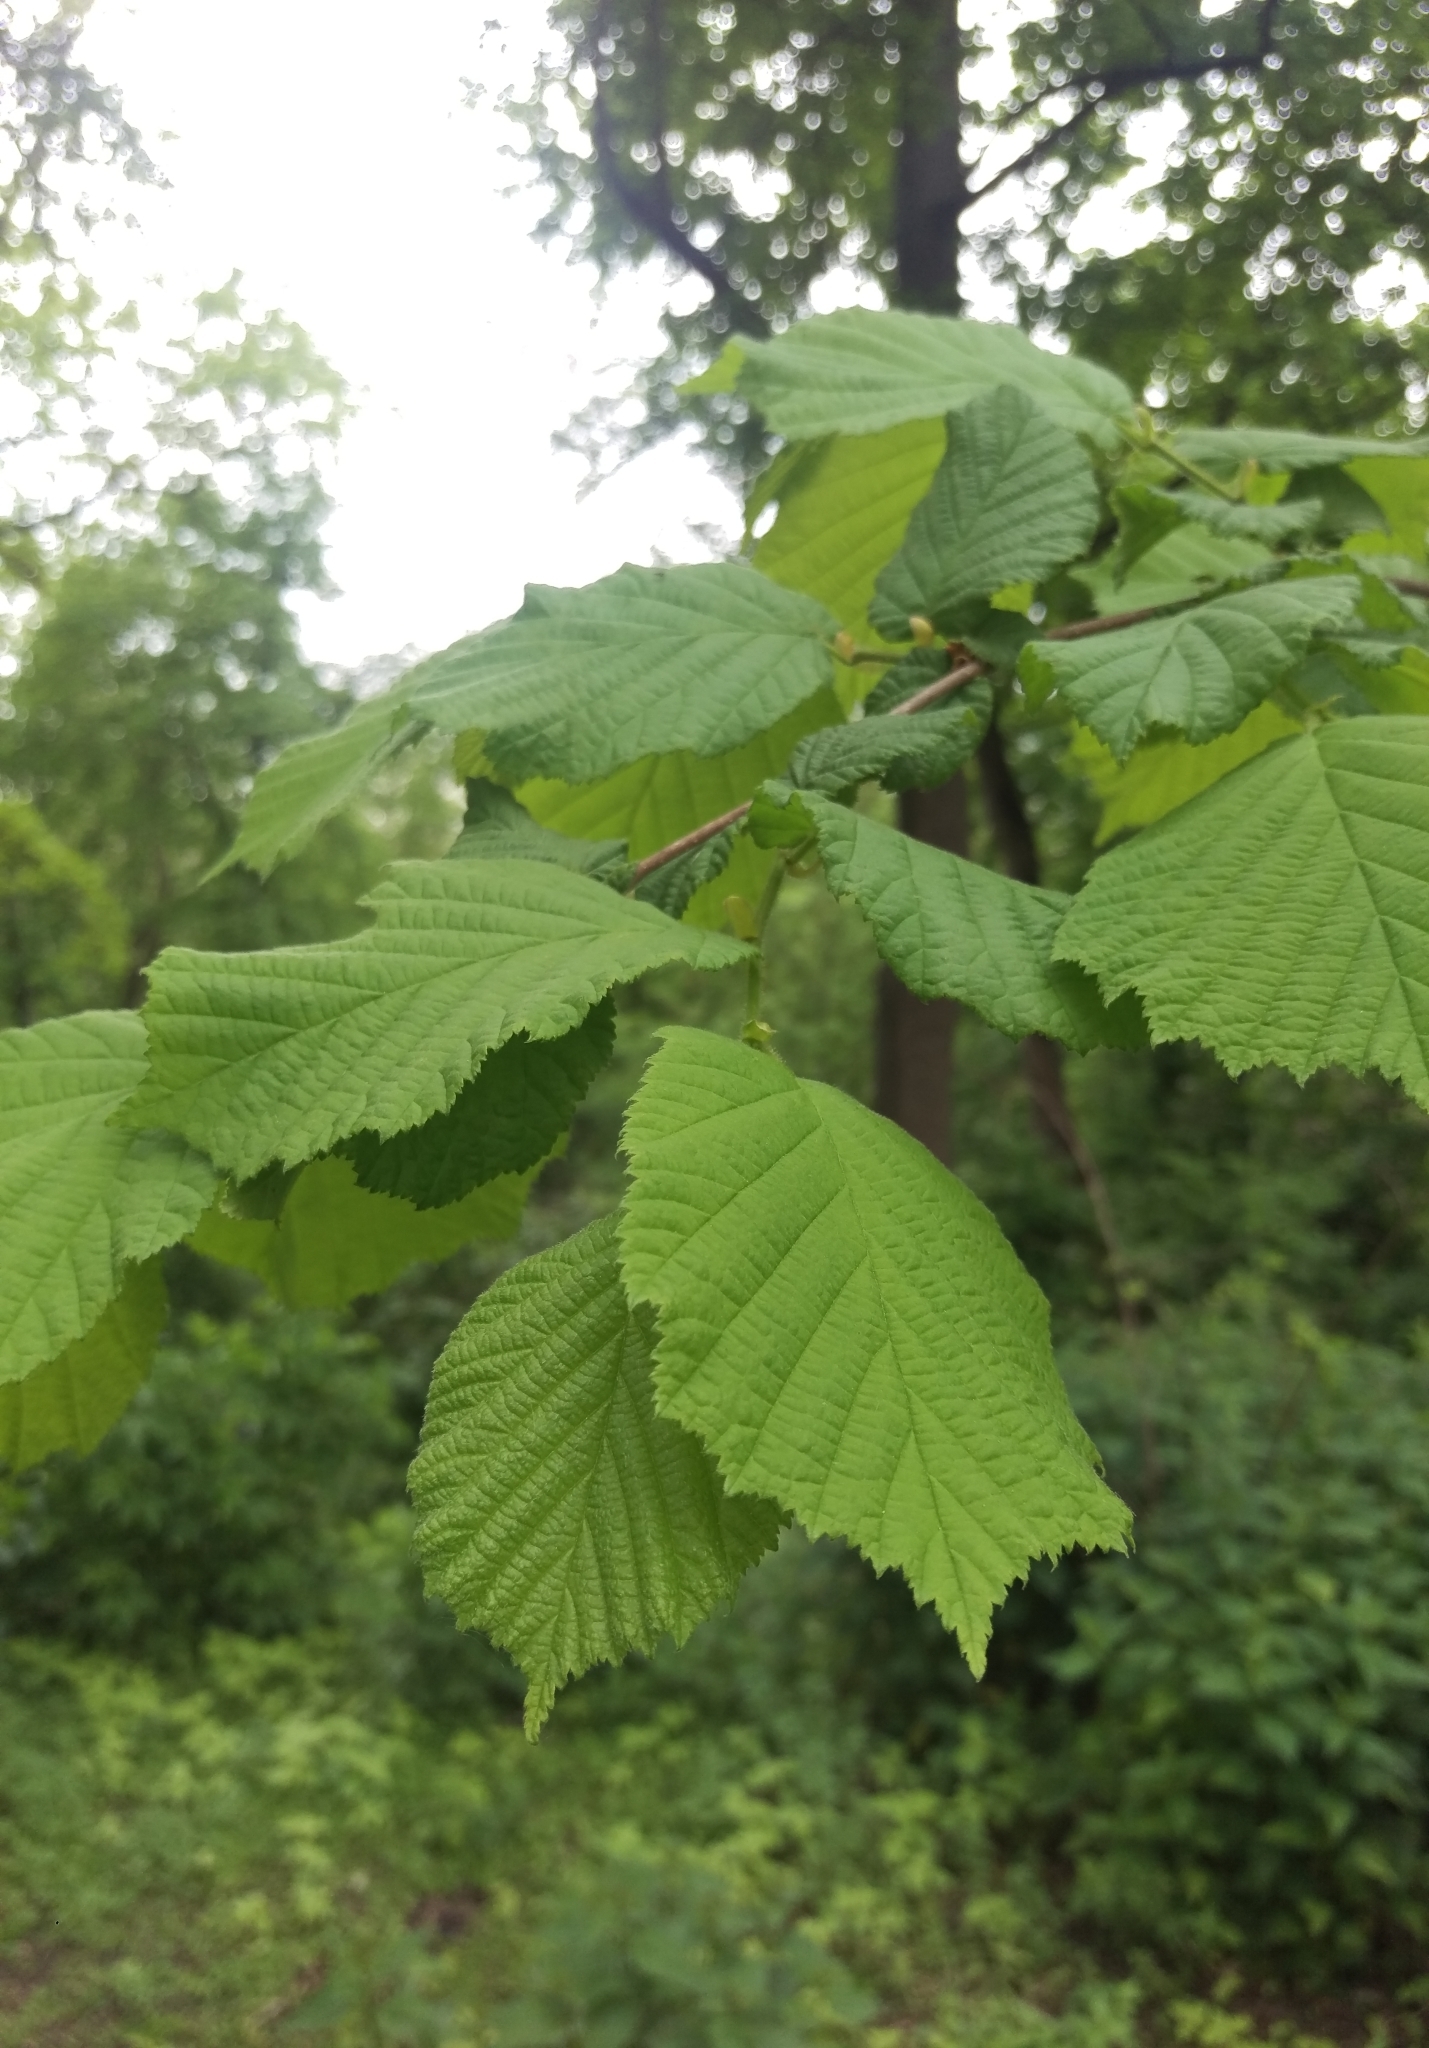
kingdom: Plantae
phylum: Tracheophyta
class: Magnoliopsida
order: Fagales
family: Betulaceae
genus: Corylus
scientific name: Corylus avellana
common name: European hazel
